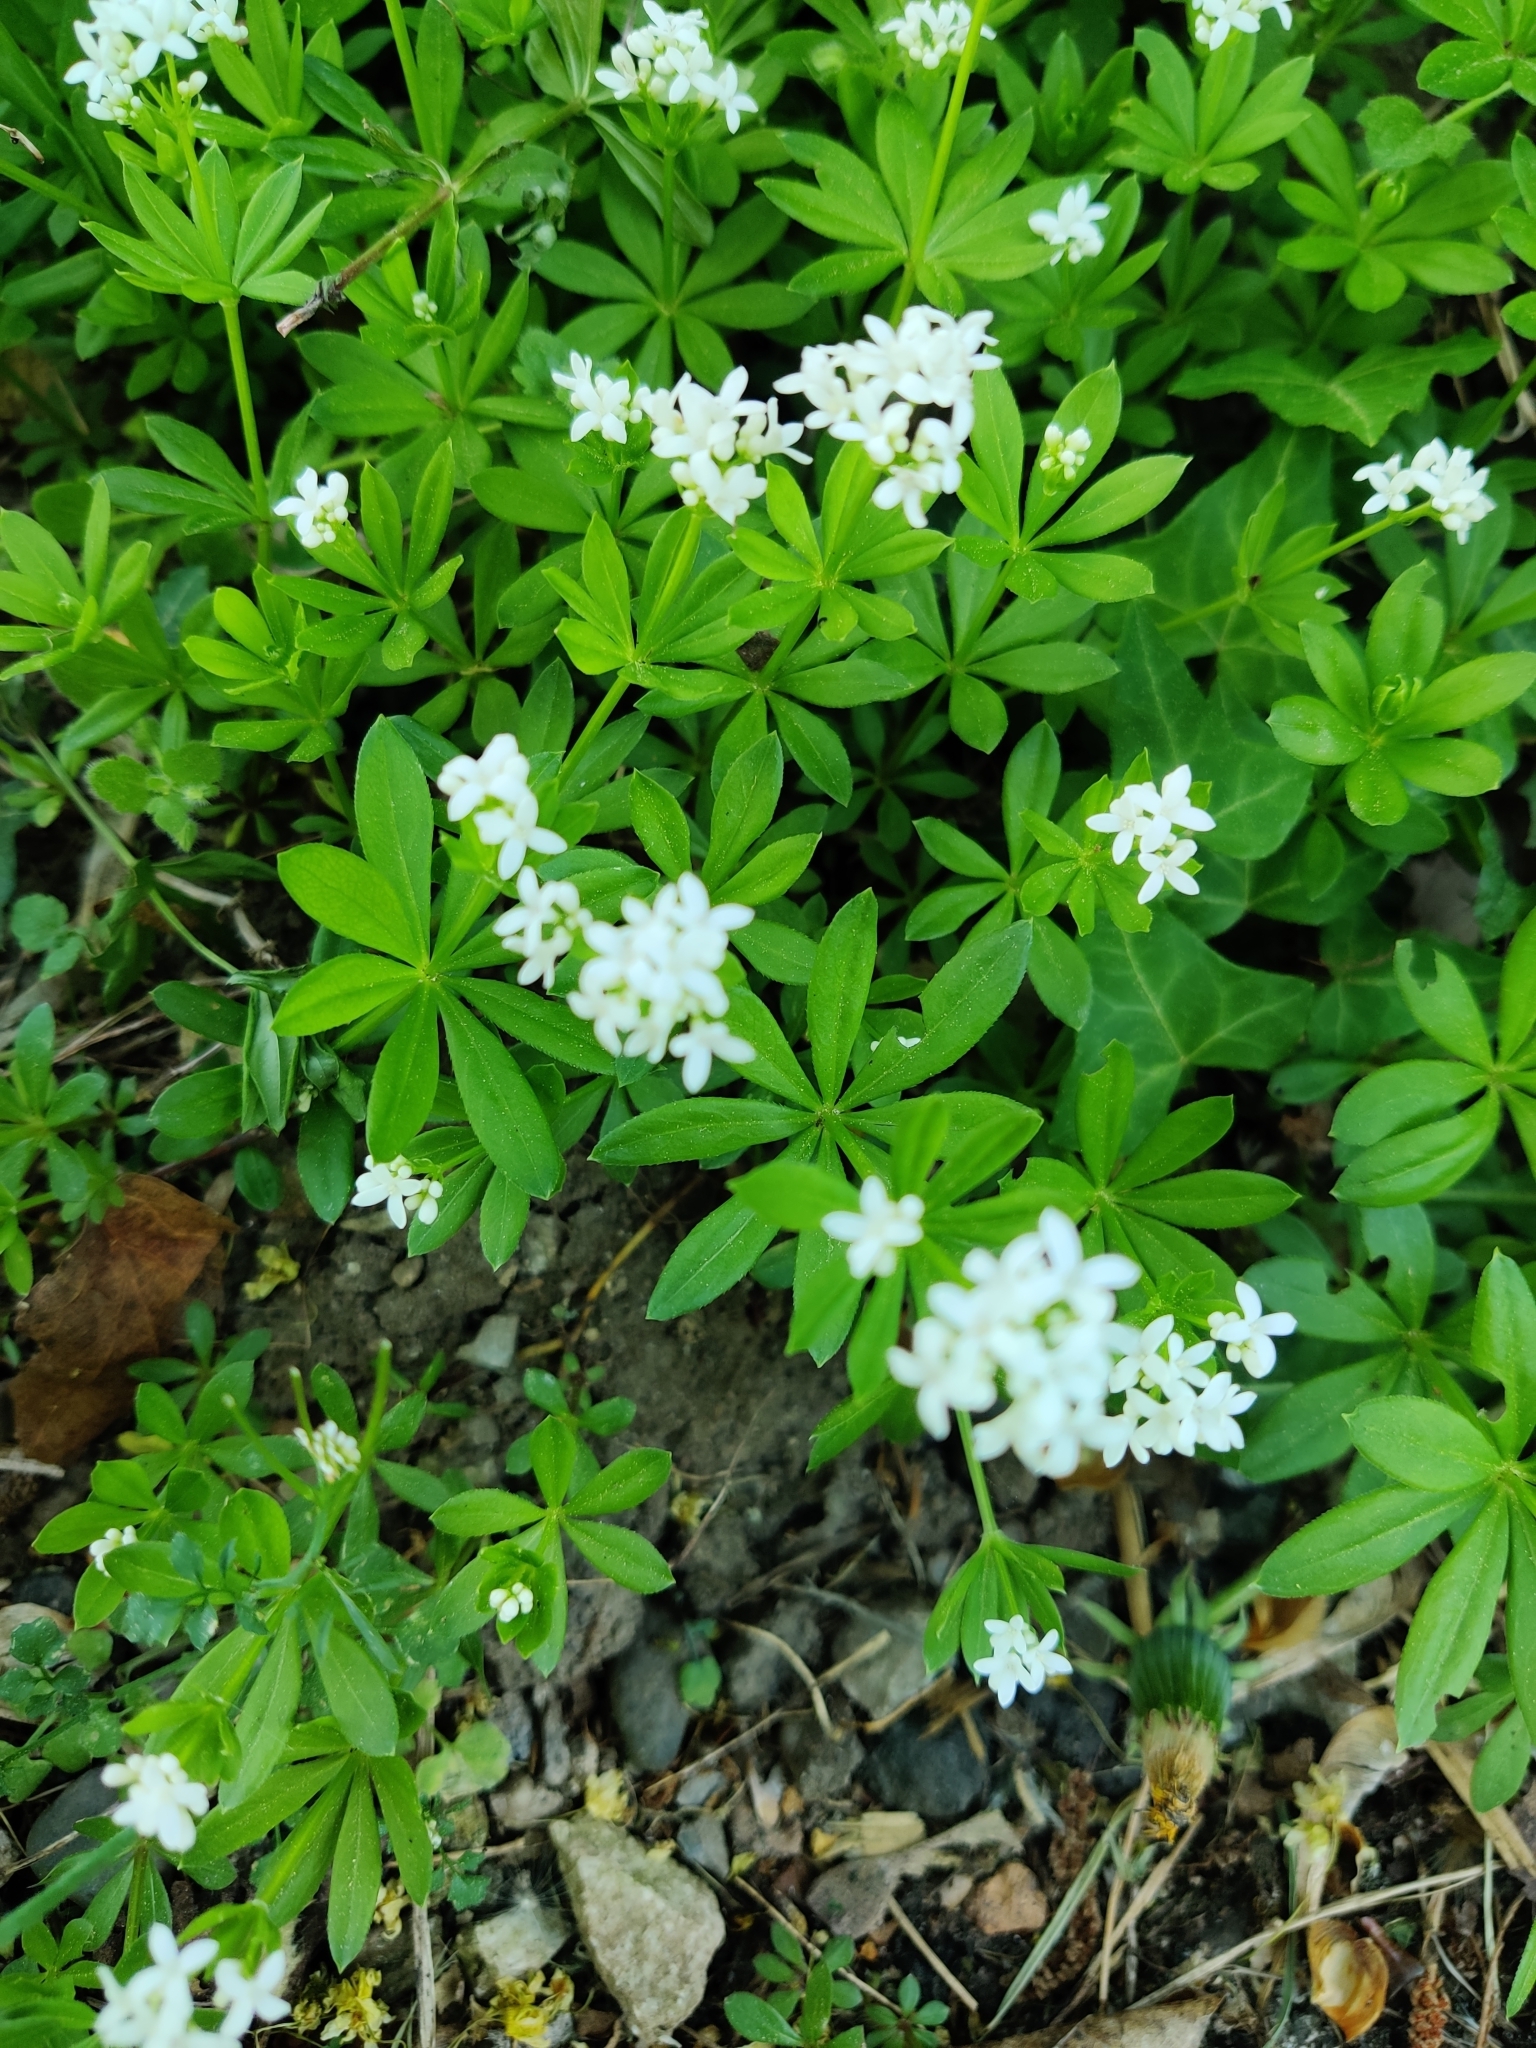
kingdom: Plantae
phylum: Tracheophyta
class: Magnoliopsida
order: Gentianales
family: Rubiaceae
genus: Galium
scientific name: Galium odoratum
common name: Sweet woodruff
